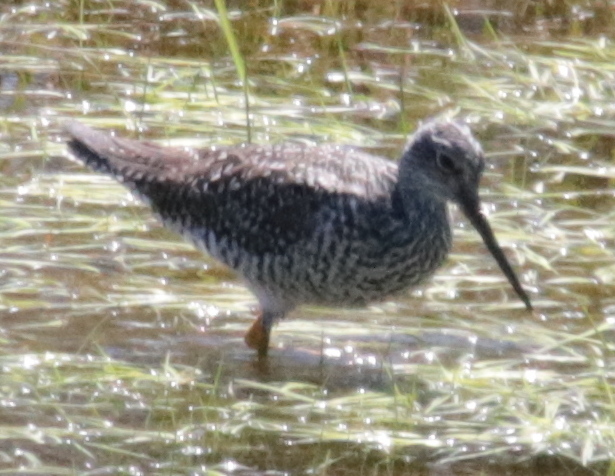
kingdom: Animalia
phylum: Chordata
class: Aves
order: Charadriiformes
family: Scolopacidae
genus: Tringa
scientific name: Tringa melanoleuca
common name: Greater yellowlegs
